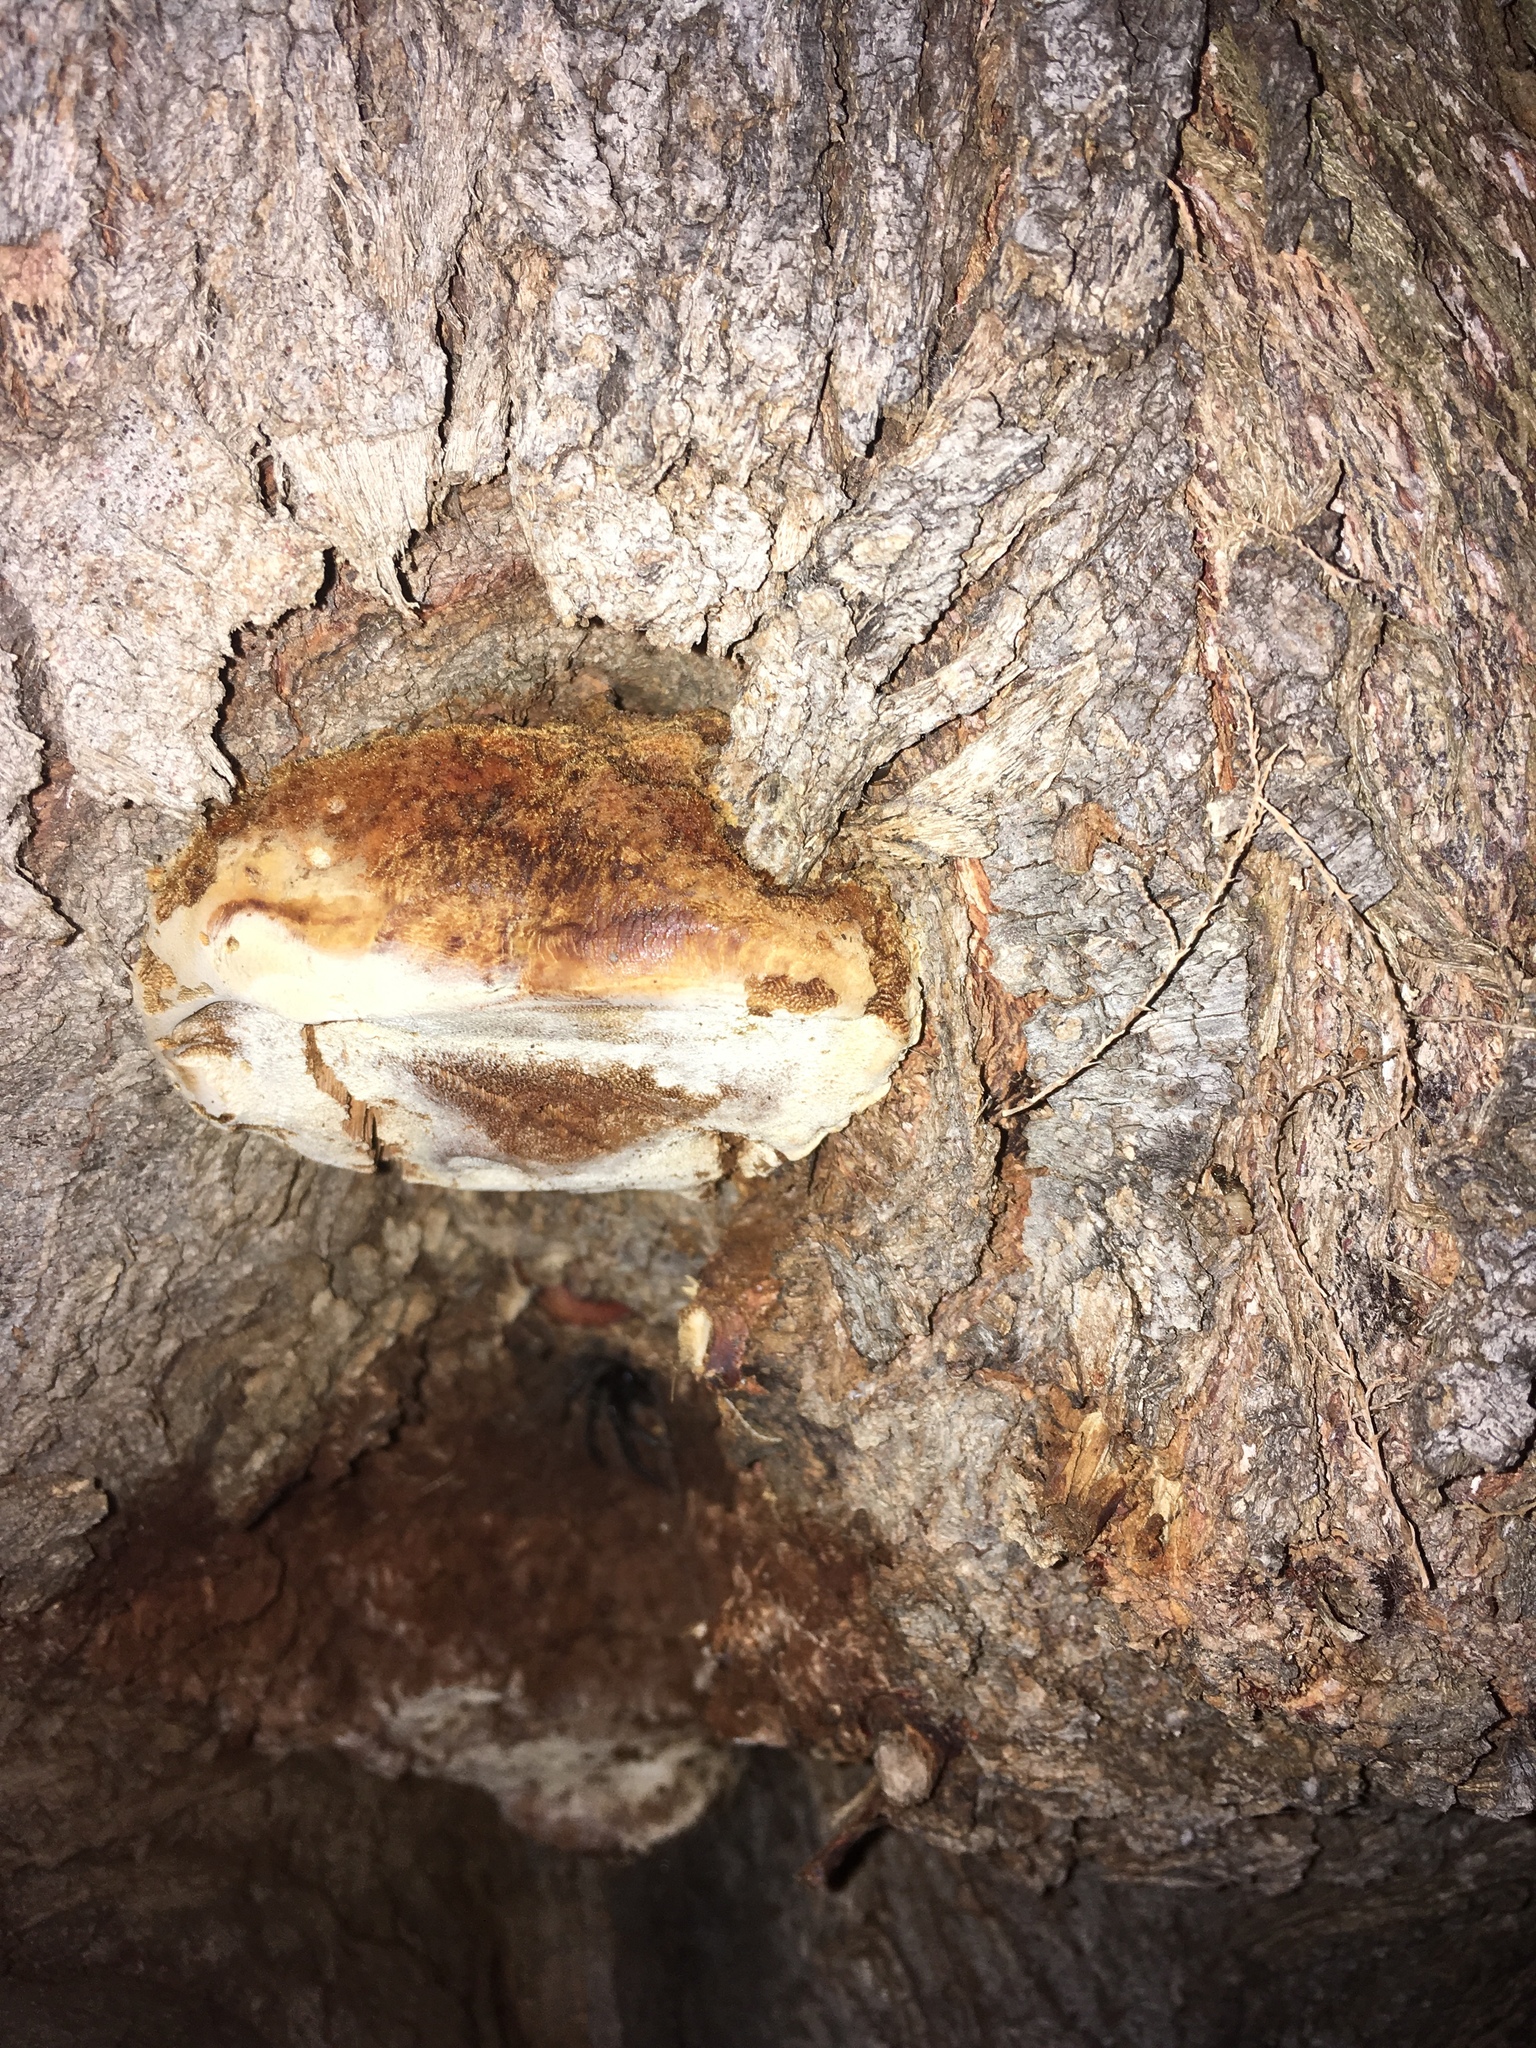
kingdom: Fungi
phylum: Basidiomycota
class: Agaricomycetes
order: Hymenochaetales
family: Hymenochaetaceae
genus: Inocutis
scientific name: Inocutis tamaricis
